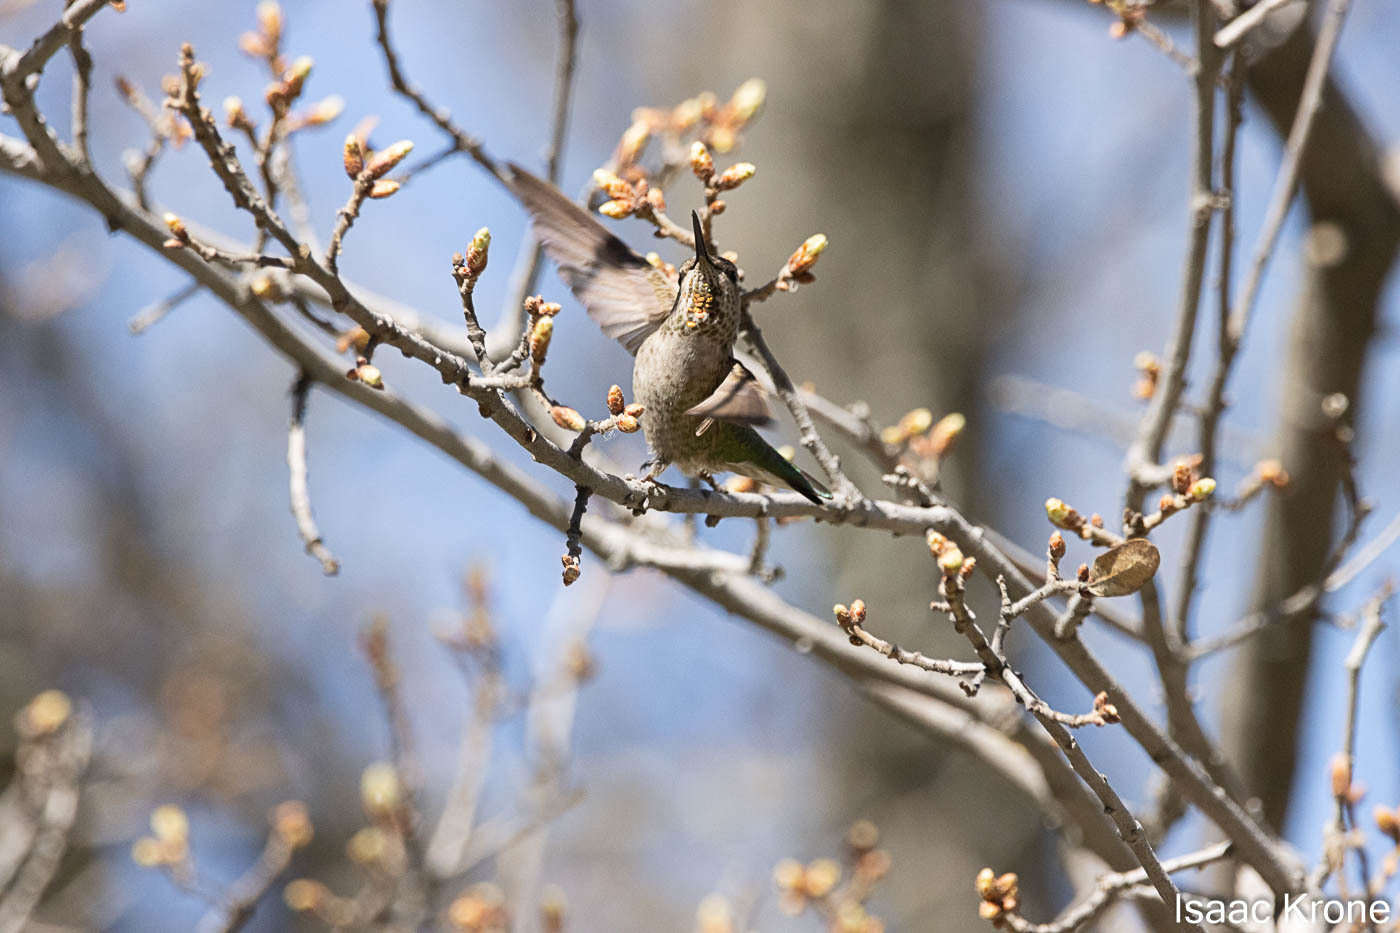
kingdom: Animalia
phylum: Chordata
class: Aves
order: Apodiformes
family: Trochilidae
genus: Calypte
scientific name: Calypte anna
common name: Anna's hummingbird
